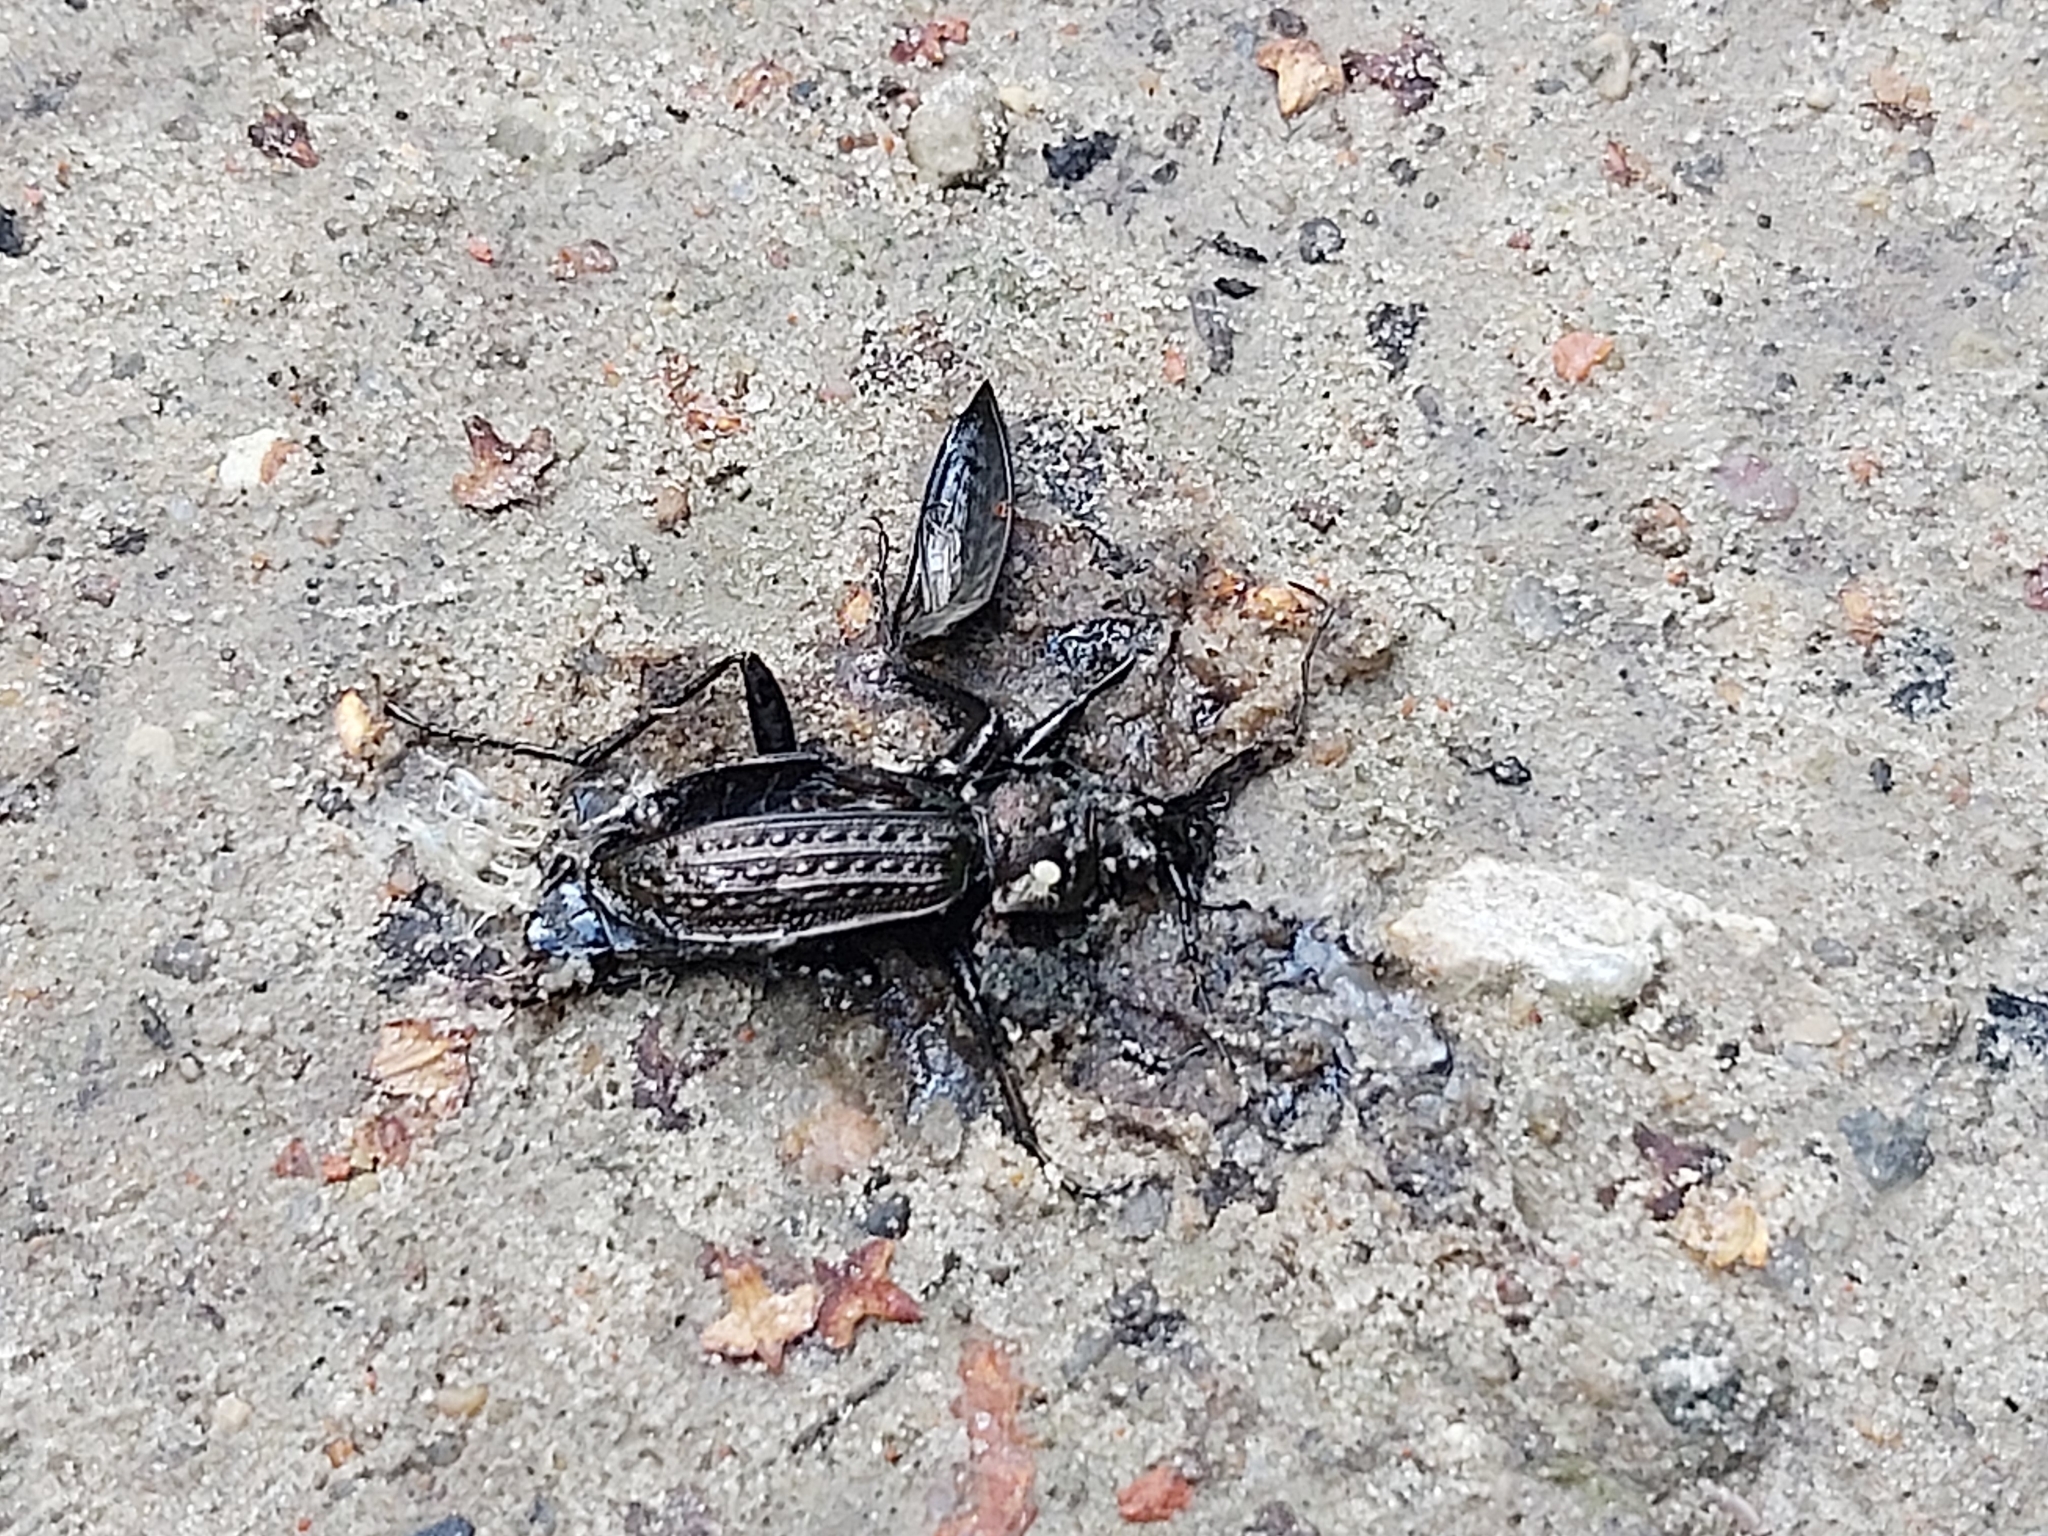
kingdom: Animalia
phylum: Arthropoda
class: Insecta
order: Coleoptera
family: Carabidae
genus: Carabus
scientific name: Carabus granulatus
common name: Granulate ground beetle
